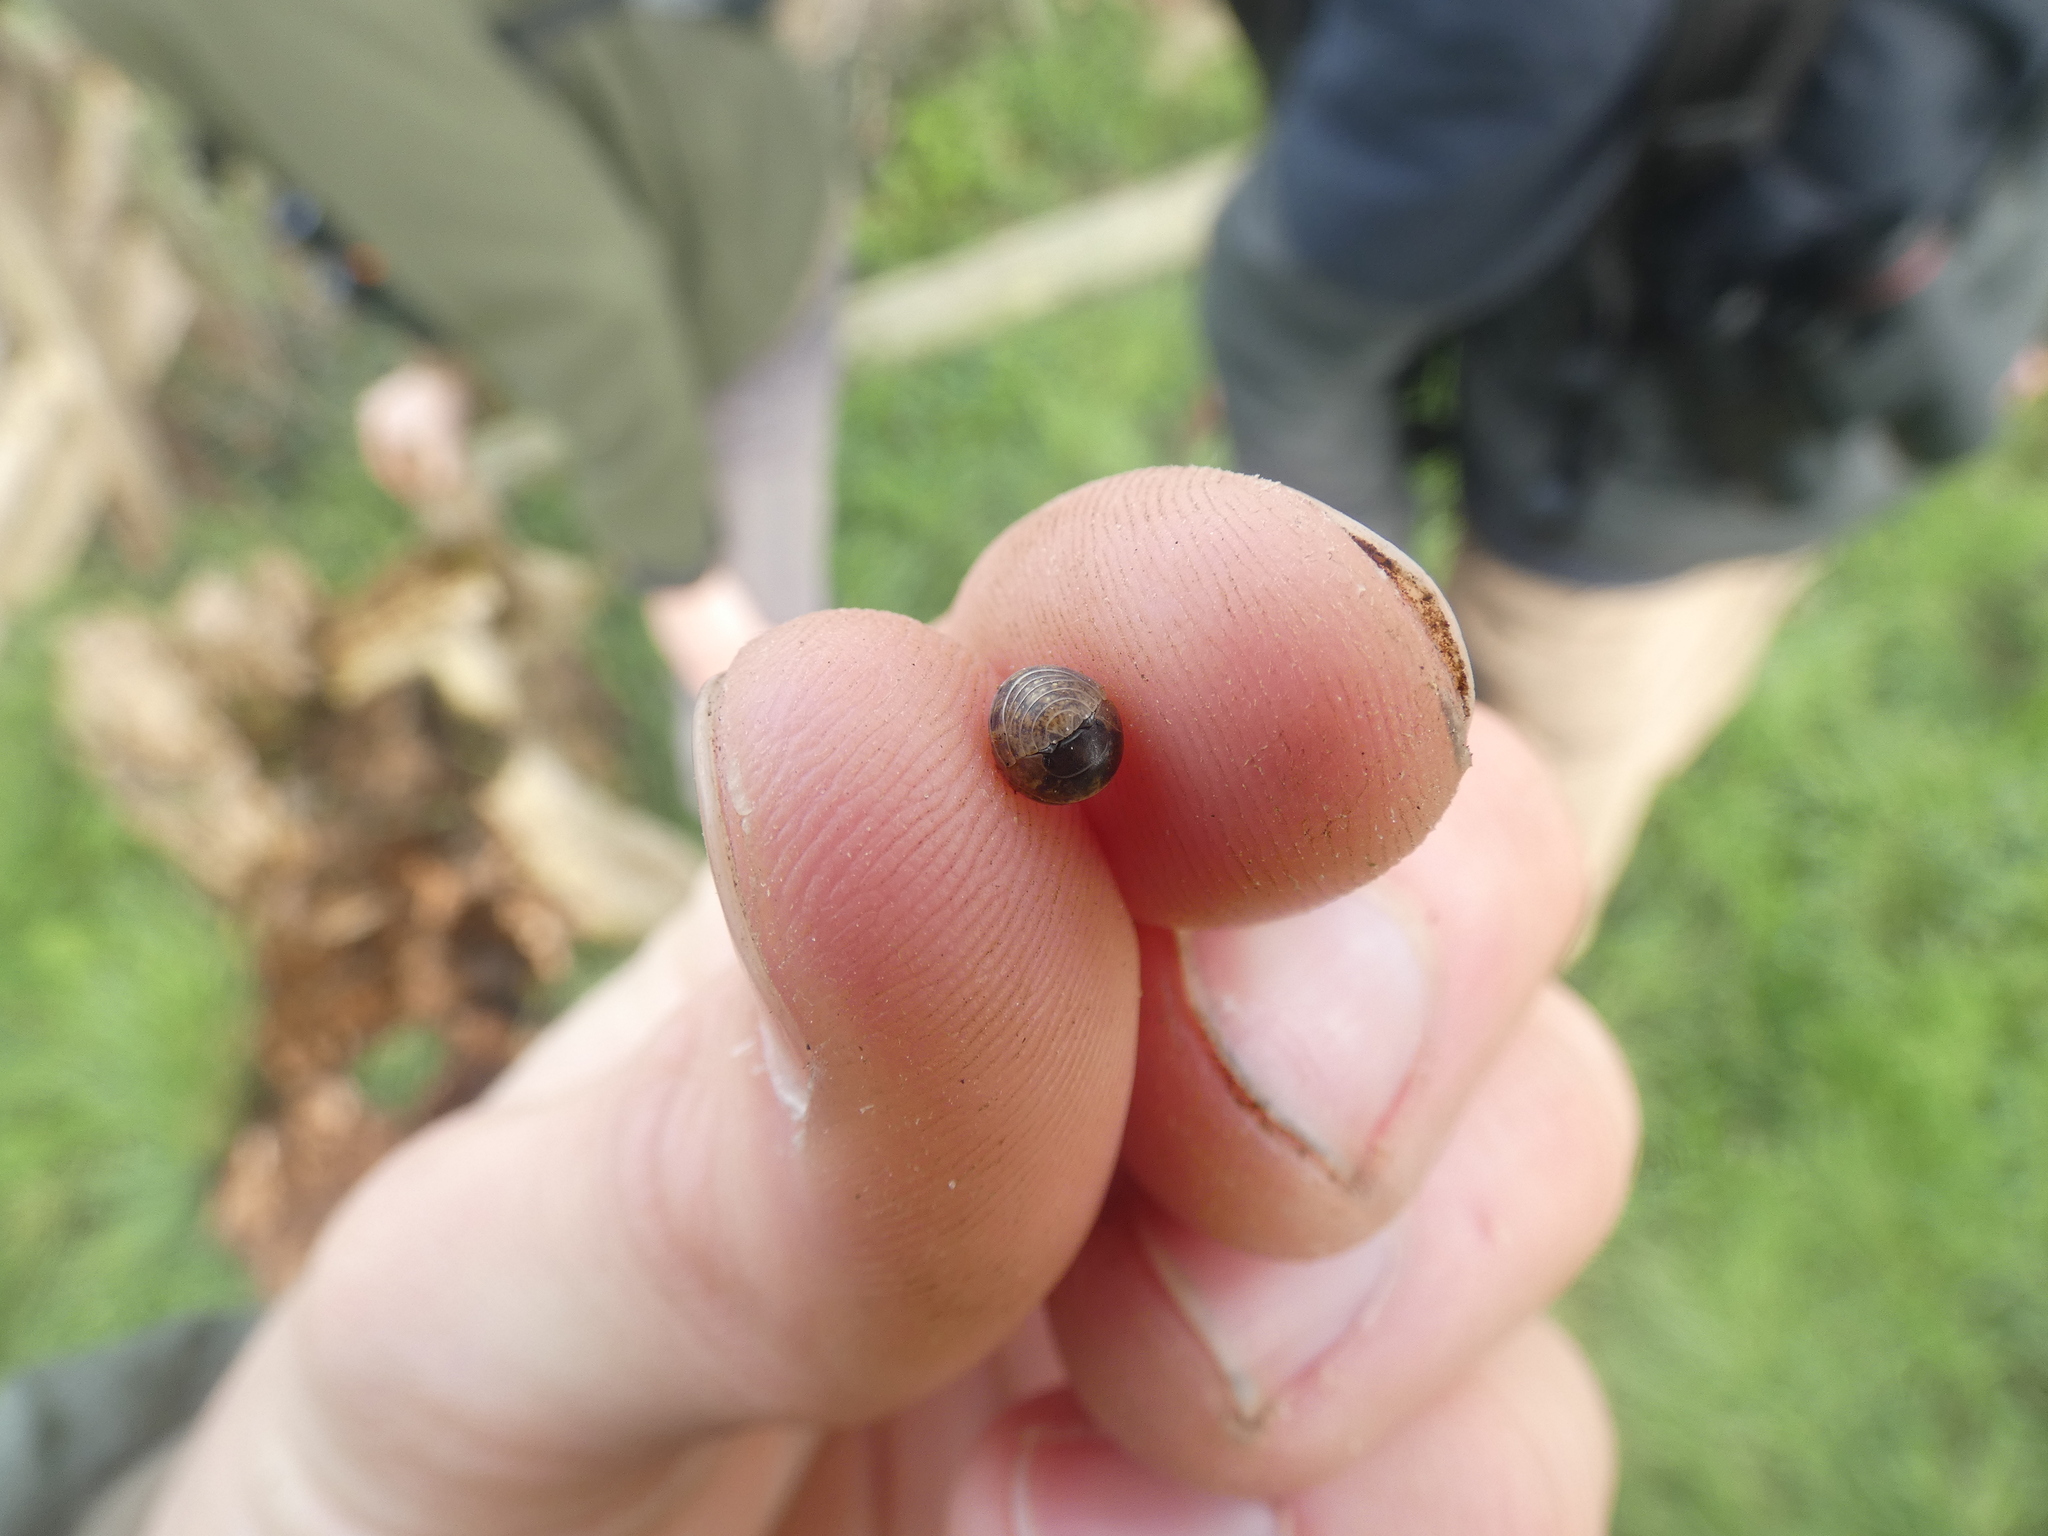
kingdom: Animalia
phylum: Arthropoda
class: Malacostraca
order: Isopoda
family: Armadillidiidae
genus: Armadillidium
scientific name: Armadillidium vulgare
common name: Common pill woodlouse
